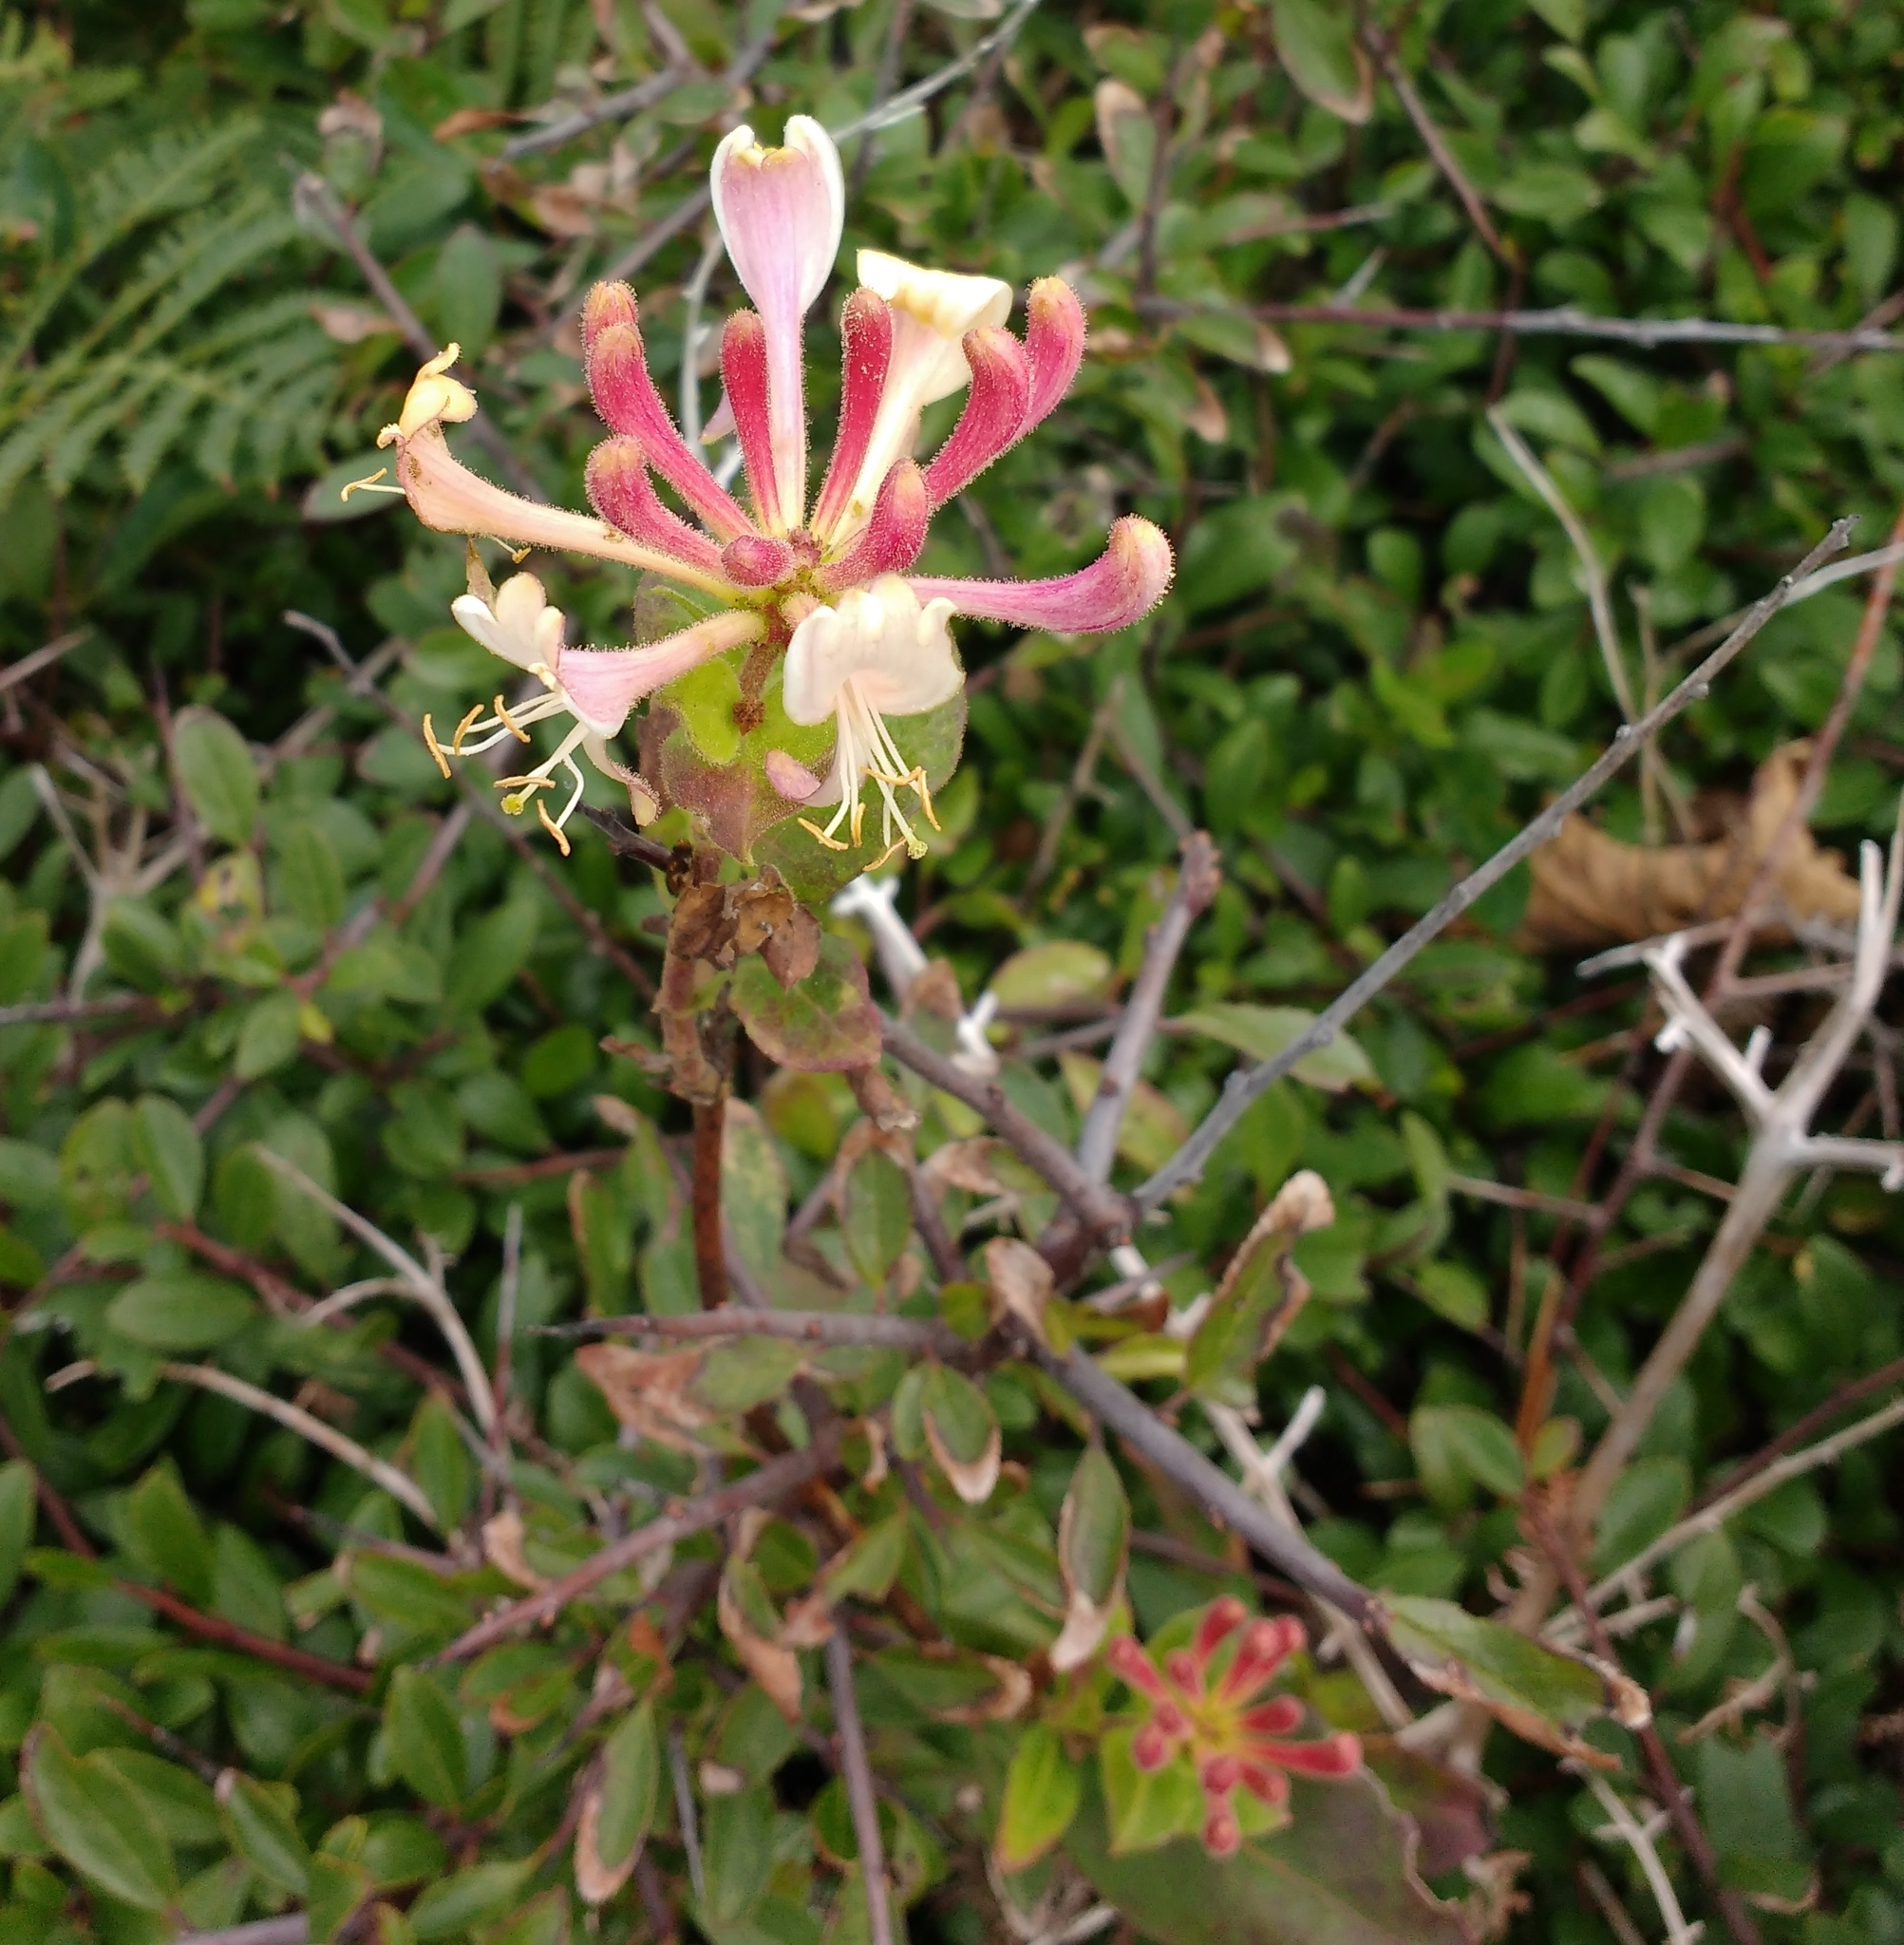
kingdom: Plantae
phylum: Tracheophyta
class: Magnoliopsida
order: Dipsacales
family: Caprifoliaceae
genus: Lonicera
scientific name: Lonicera periclymenum
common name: European honeysuckle
